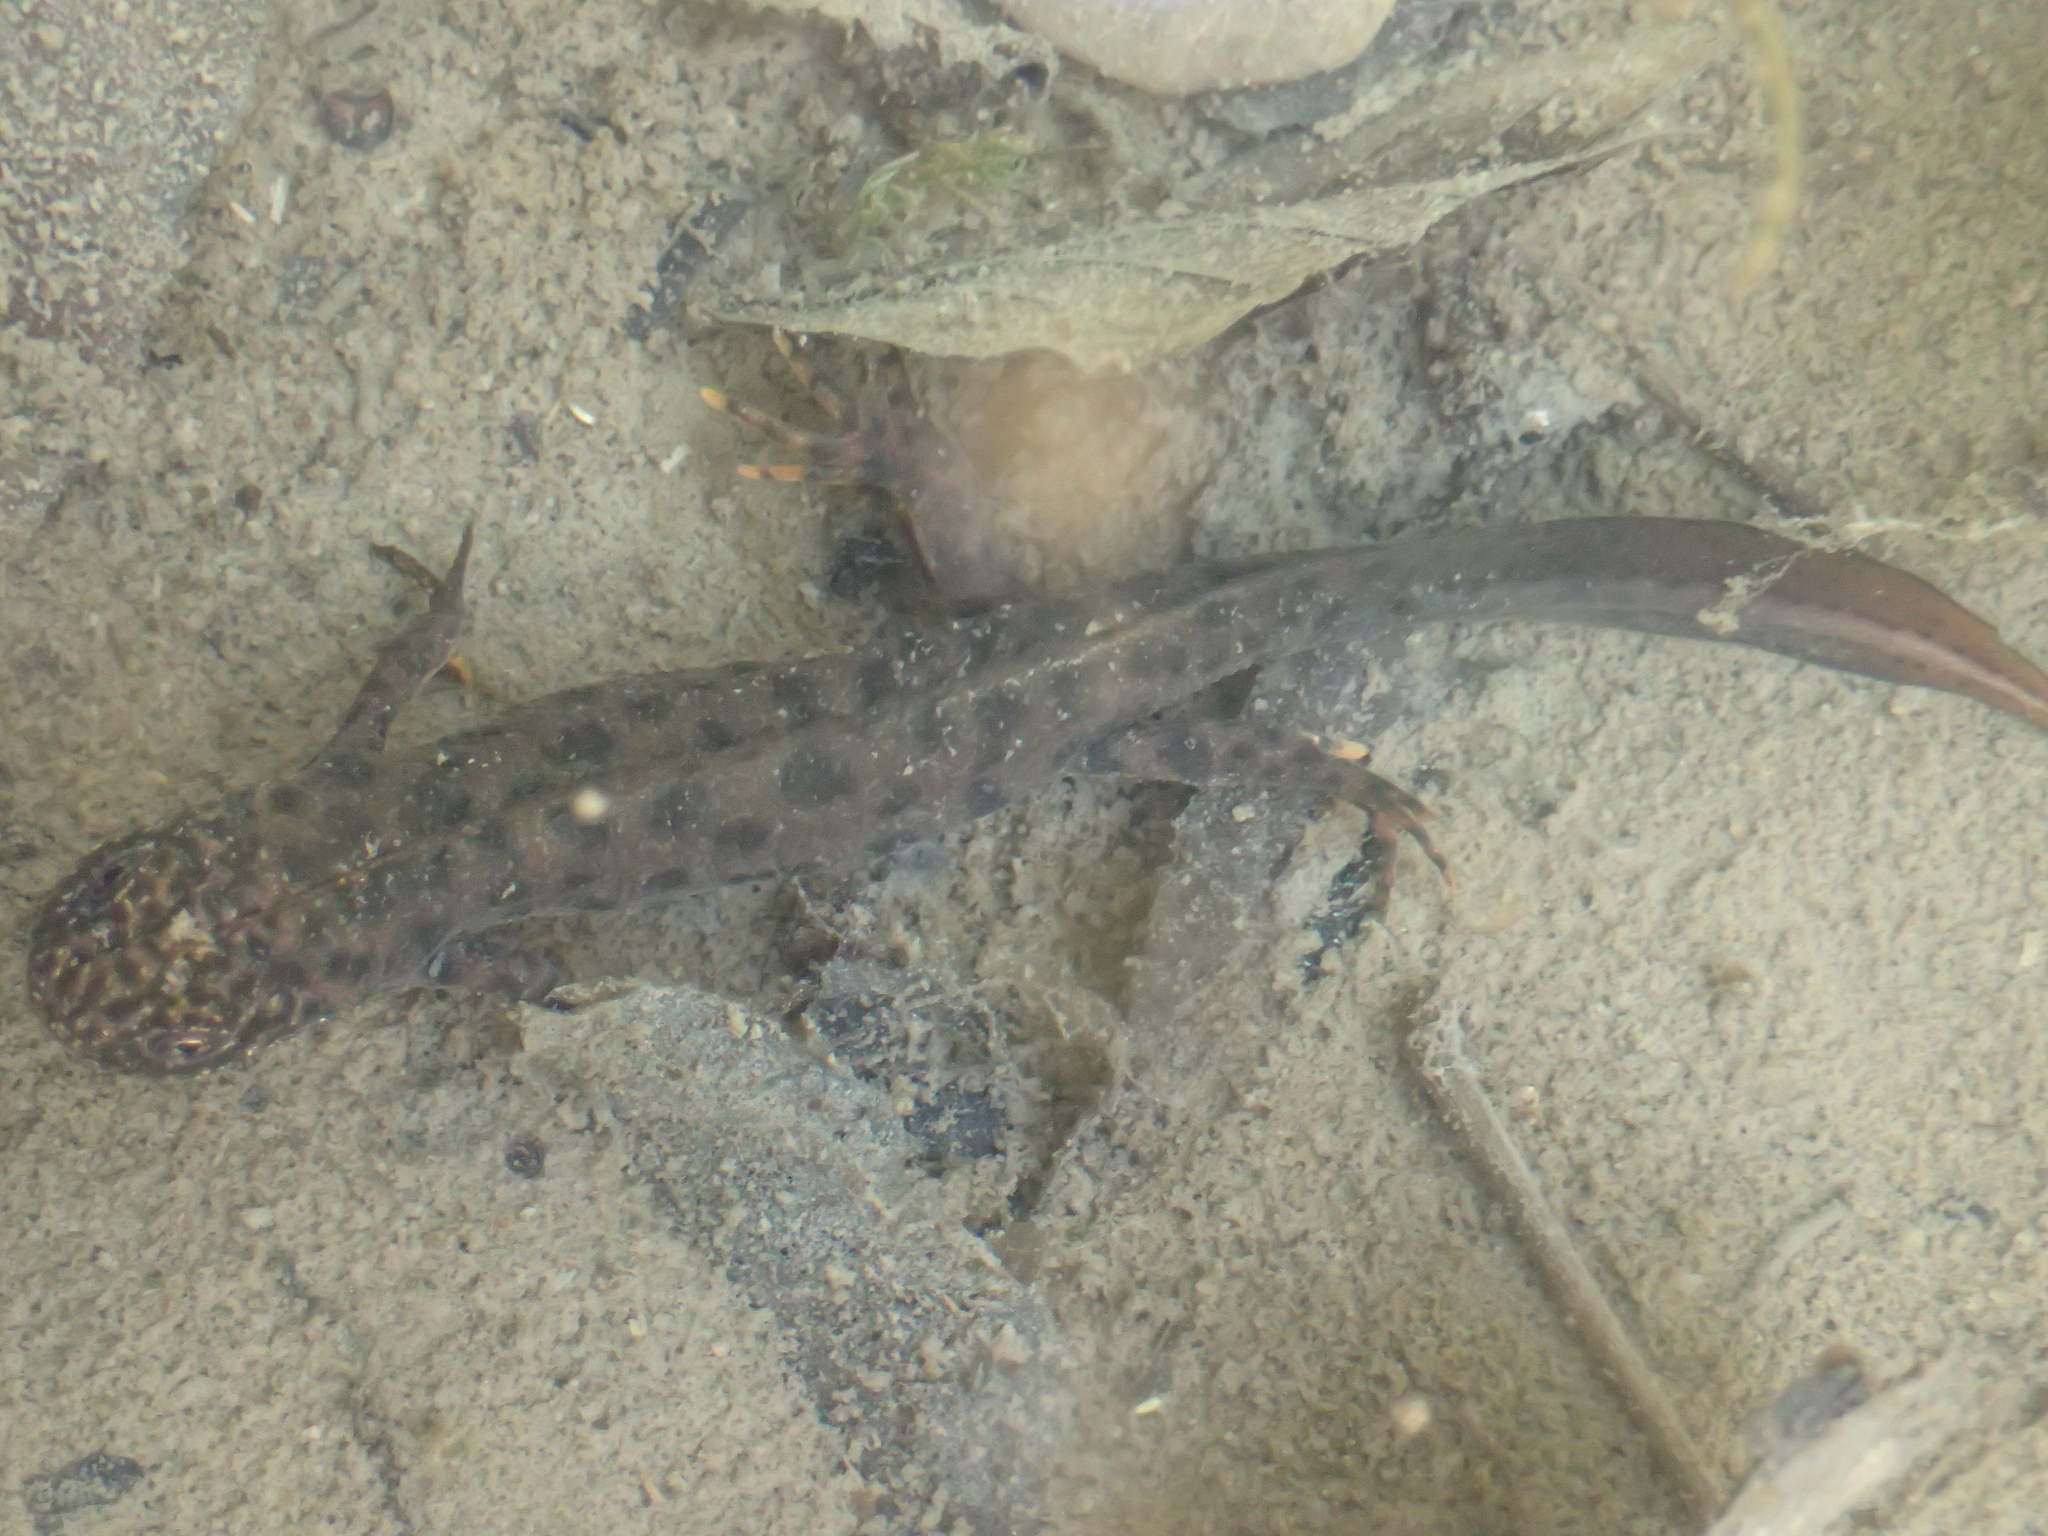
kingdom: Animalia
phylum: Chordata
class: Amphibia
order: Caudata
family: Salamandridae
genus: Triturus
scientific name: Triturus carnifex
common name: Italian crested newt
